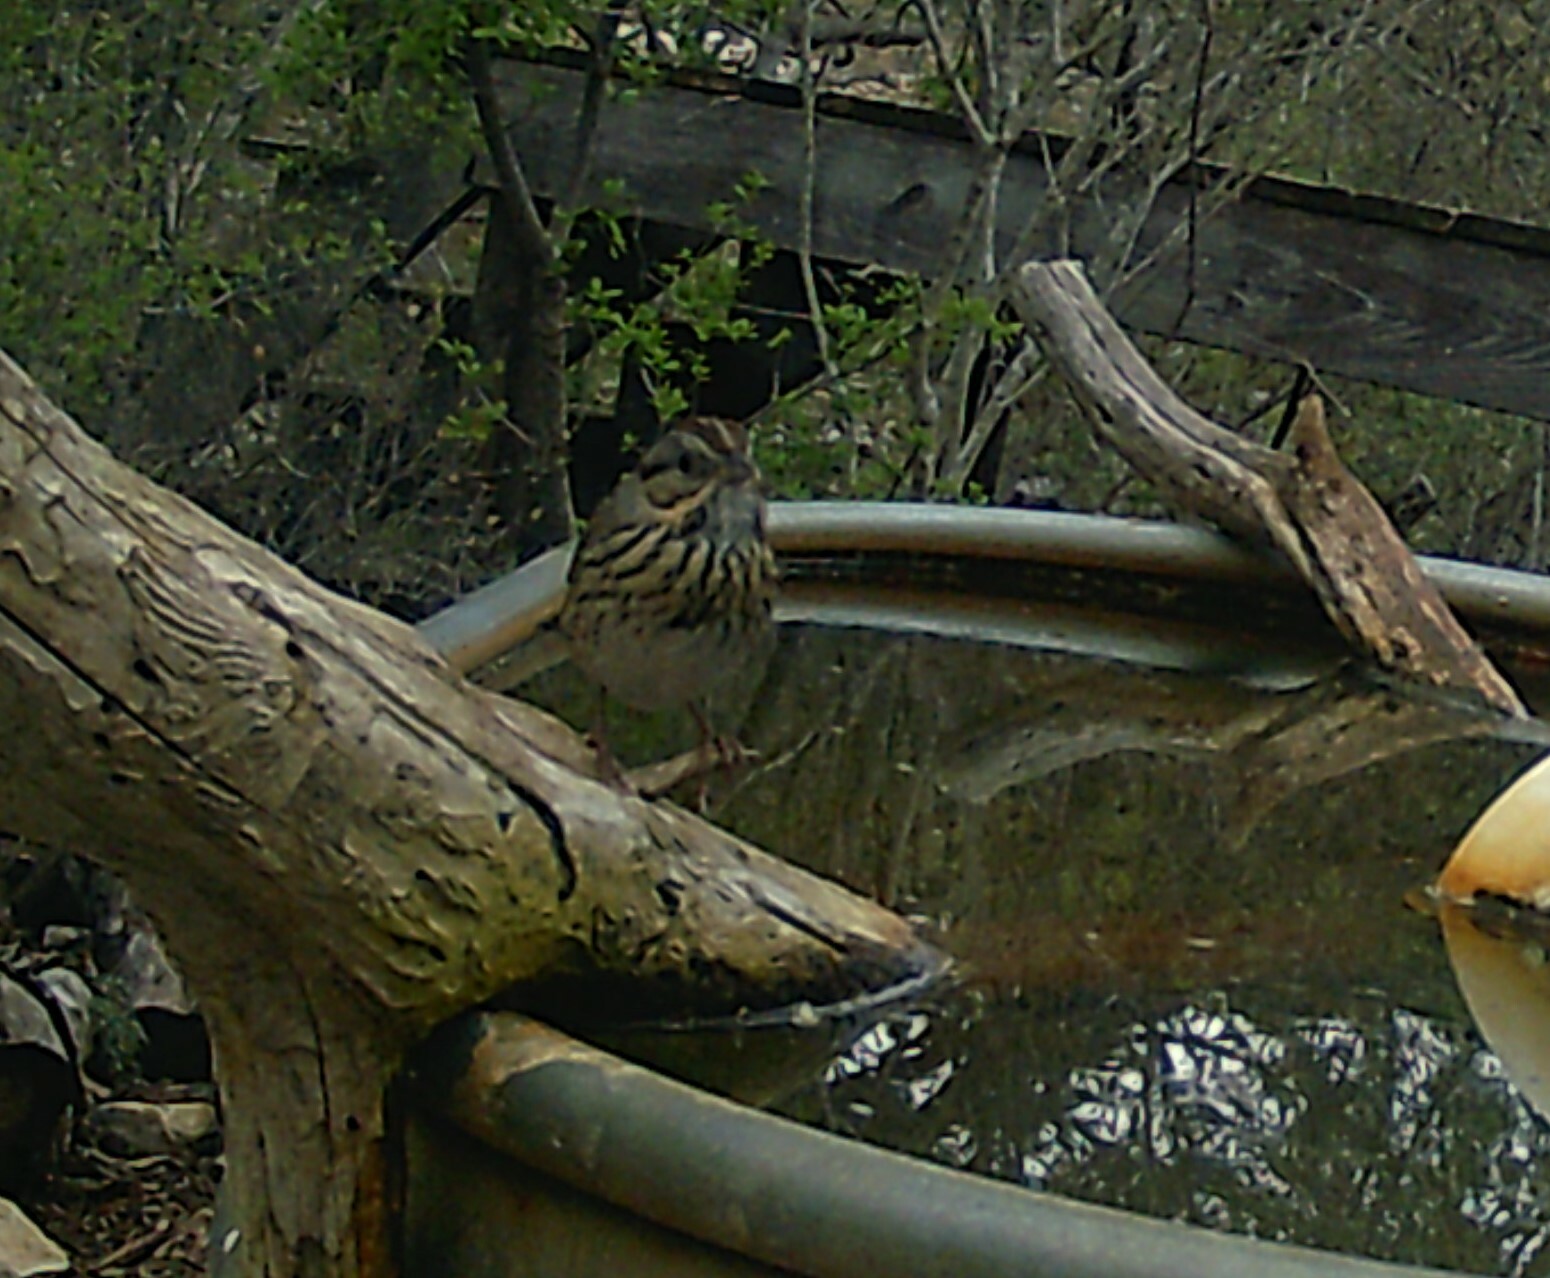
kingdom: Animalia
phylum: Chordata
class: Aves
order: Passeriformes
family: Passerellidae
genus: Melospiza
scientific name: Melospiza lincolnii
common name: Lincoln's sparrow
